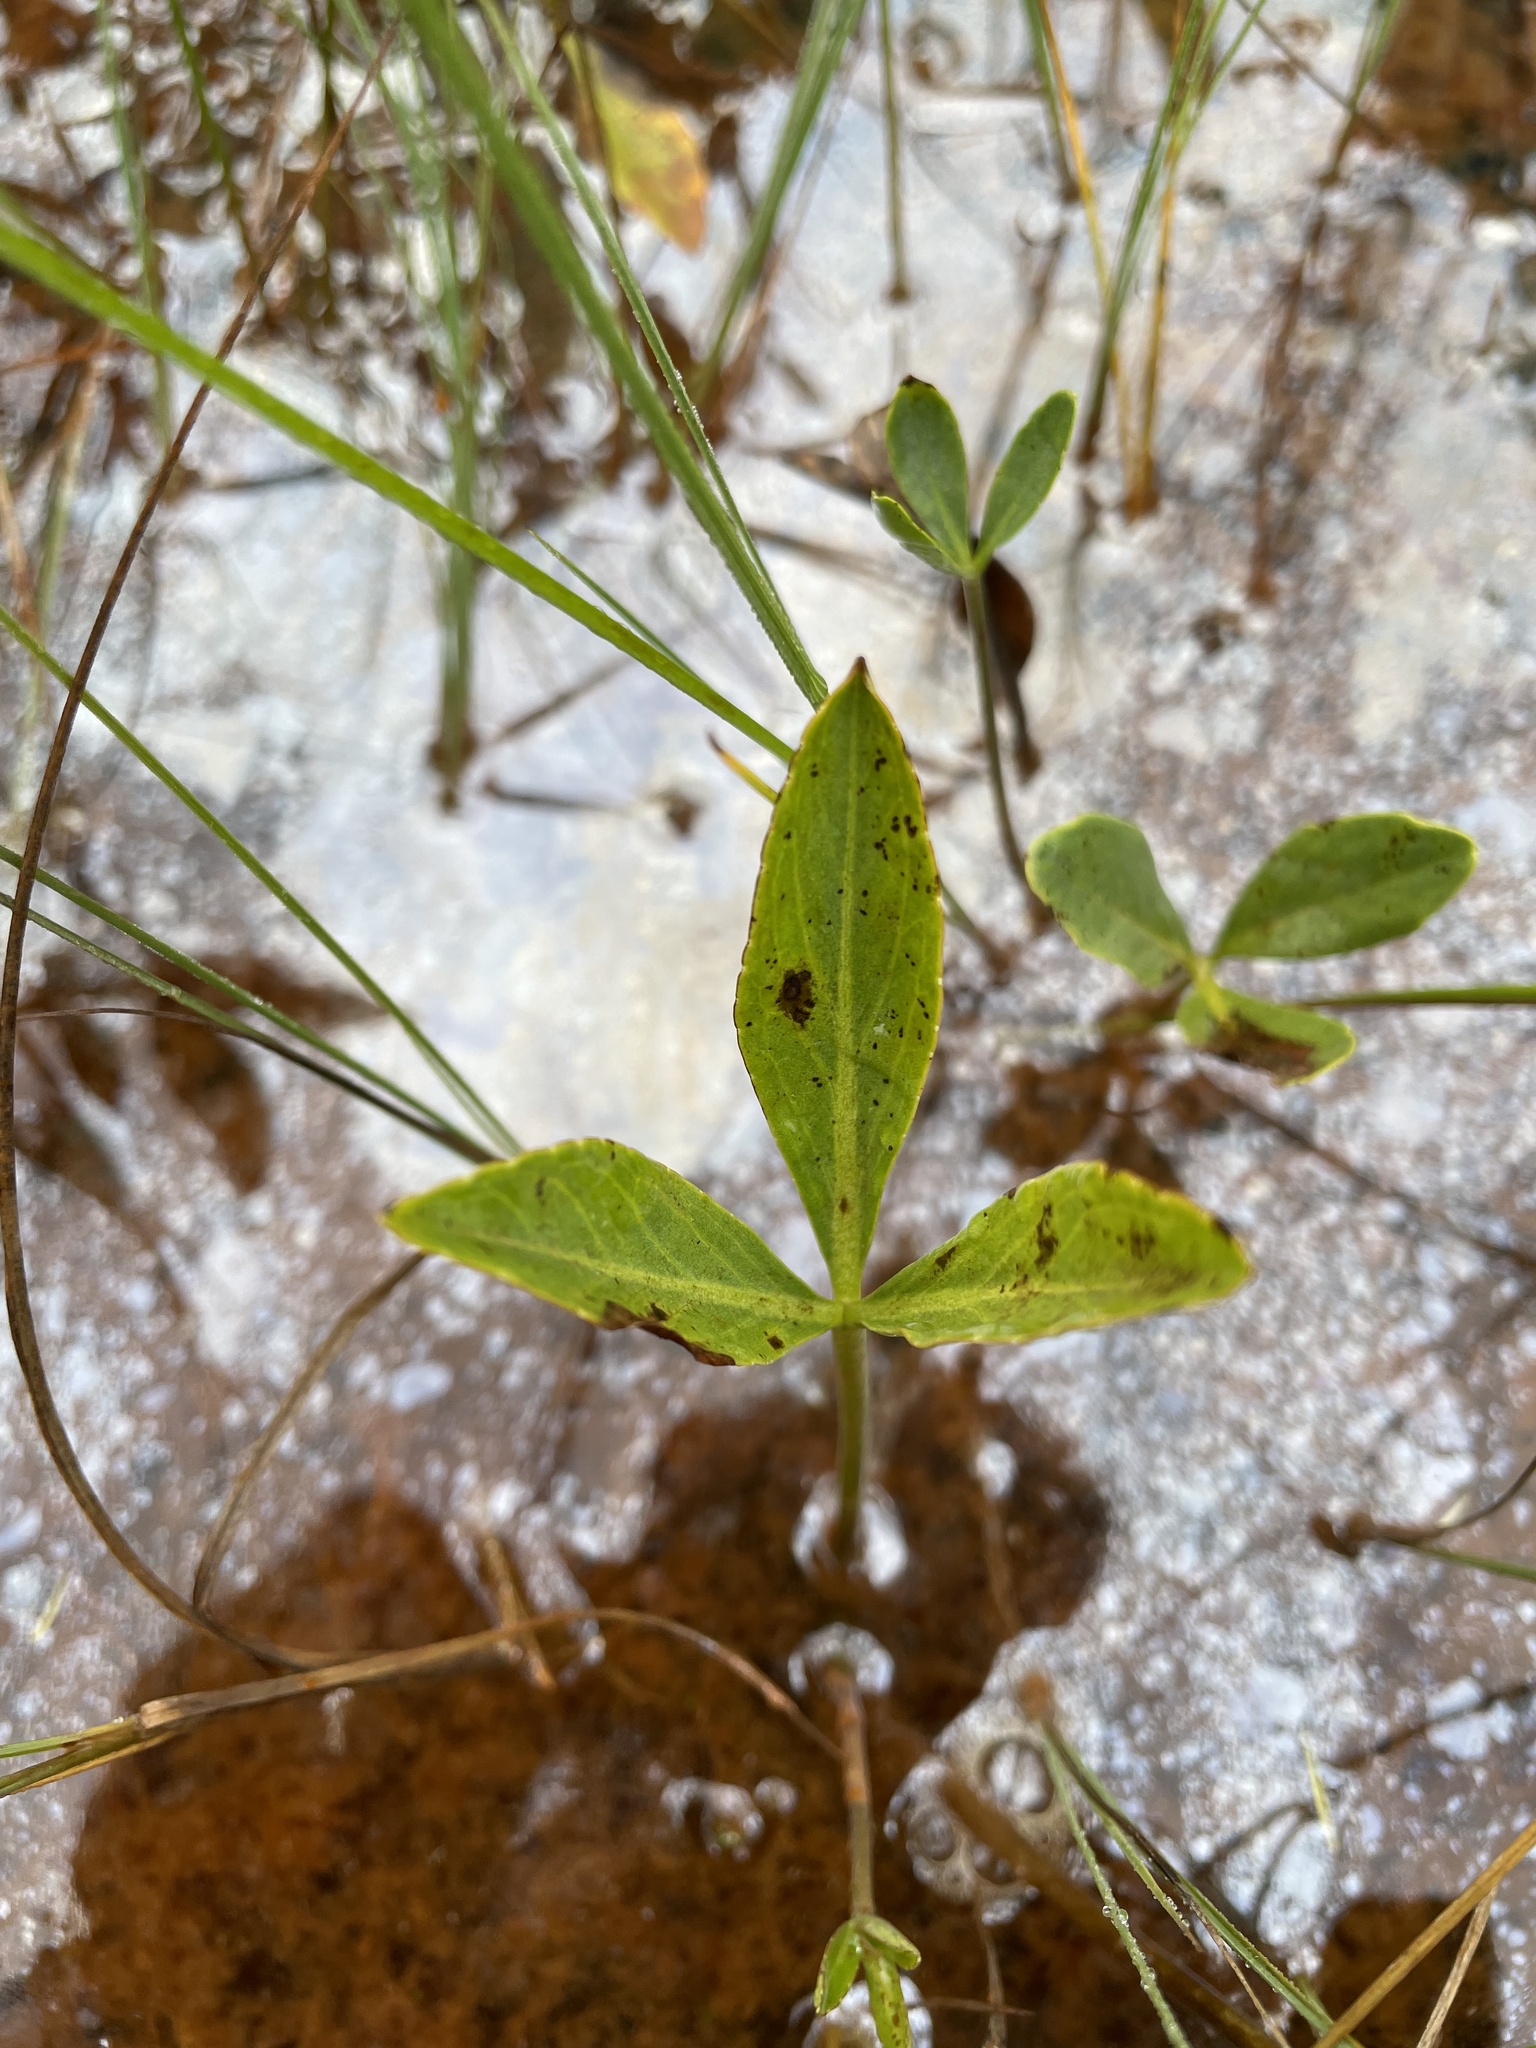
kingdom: Plantae
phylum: Tracheophyta
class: Magnoliopsida
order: Asterales
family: Menyanthaceae
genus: Menyanthes
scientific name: Menyanthes trifoliata
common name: Bogbean
